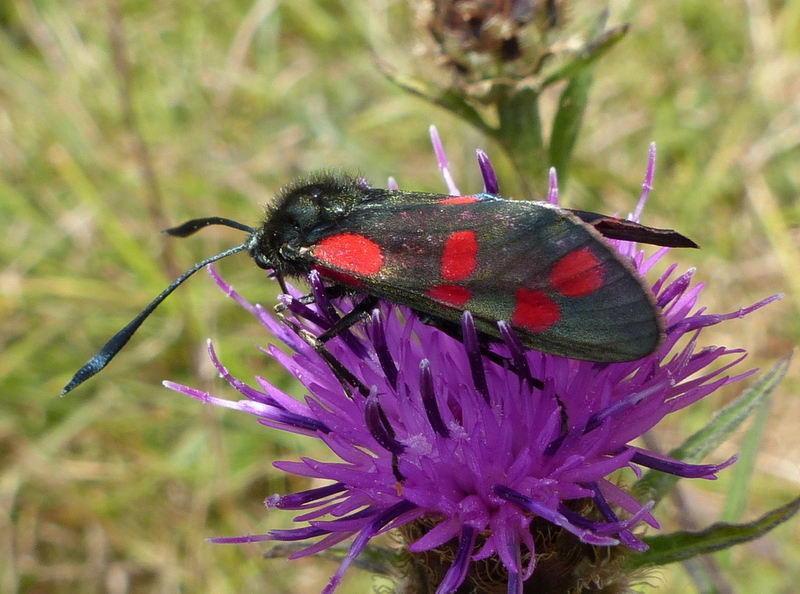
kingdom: Animalia
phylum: Arthropoda
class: Insecta
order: Lepidoptera
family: Zygaenidae
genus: Zygaena
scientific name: Zygaena filipendulae
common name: Six-spot burnet
